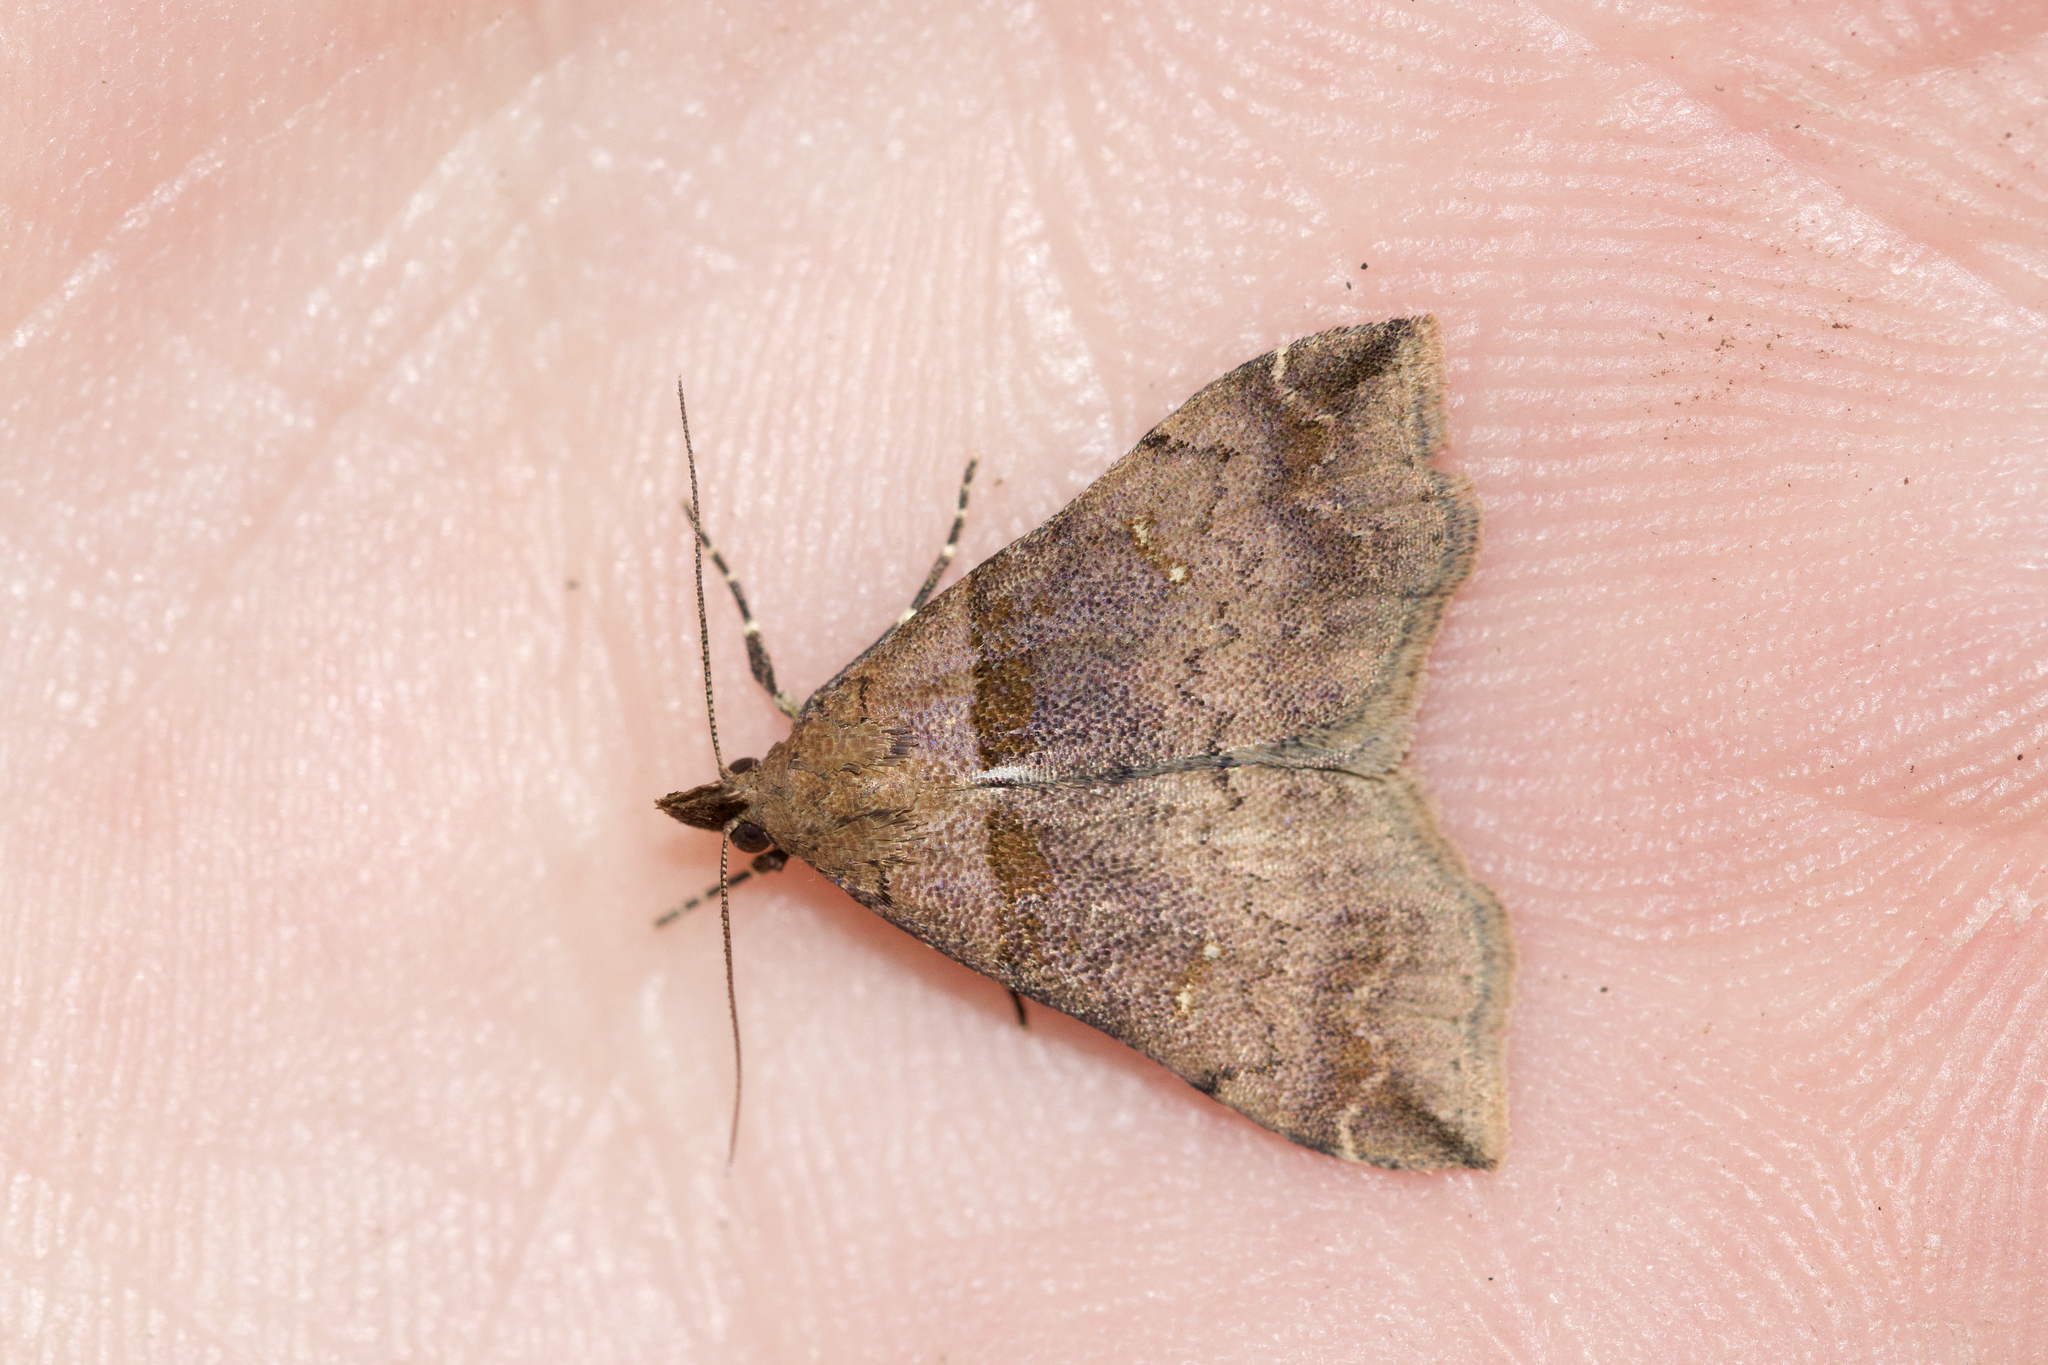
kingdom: Animalia
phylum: Arthropoda
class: Insecta
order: Lepidoptera
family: Erebidae
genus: Lascoria
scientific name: Lascoria ambigualis
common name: Ambiguous moth
